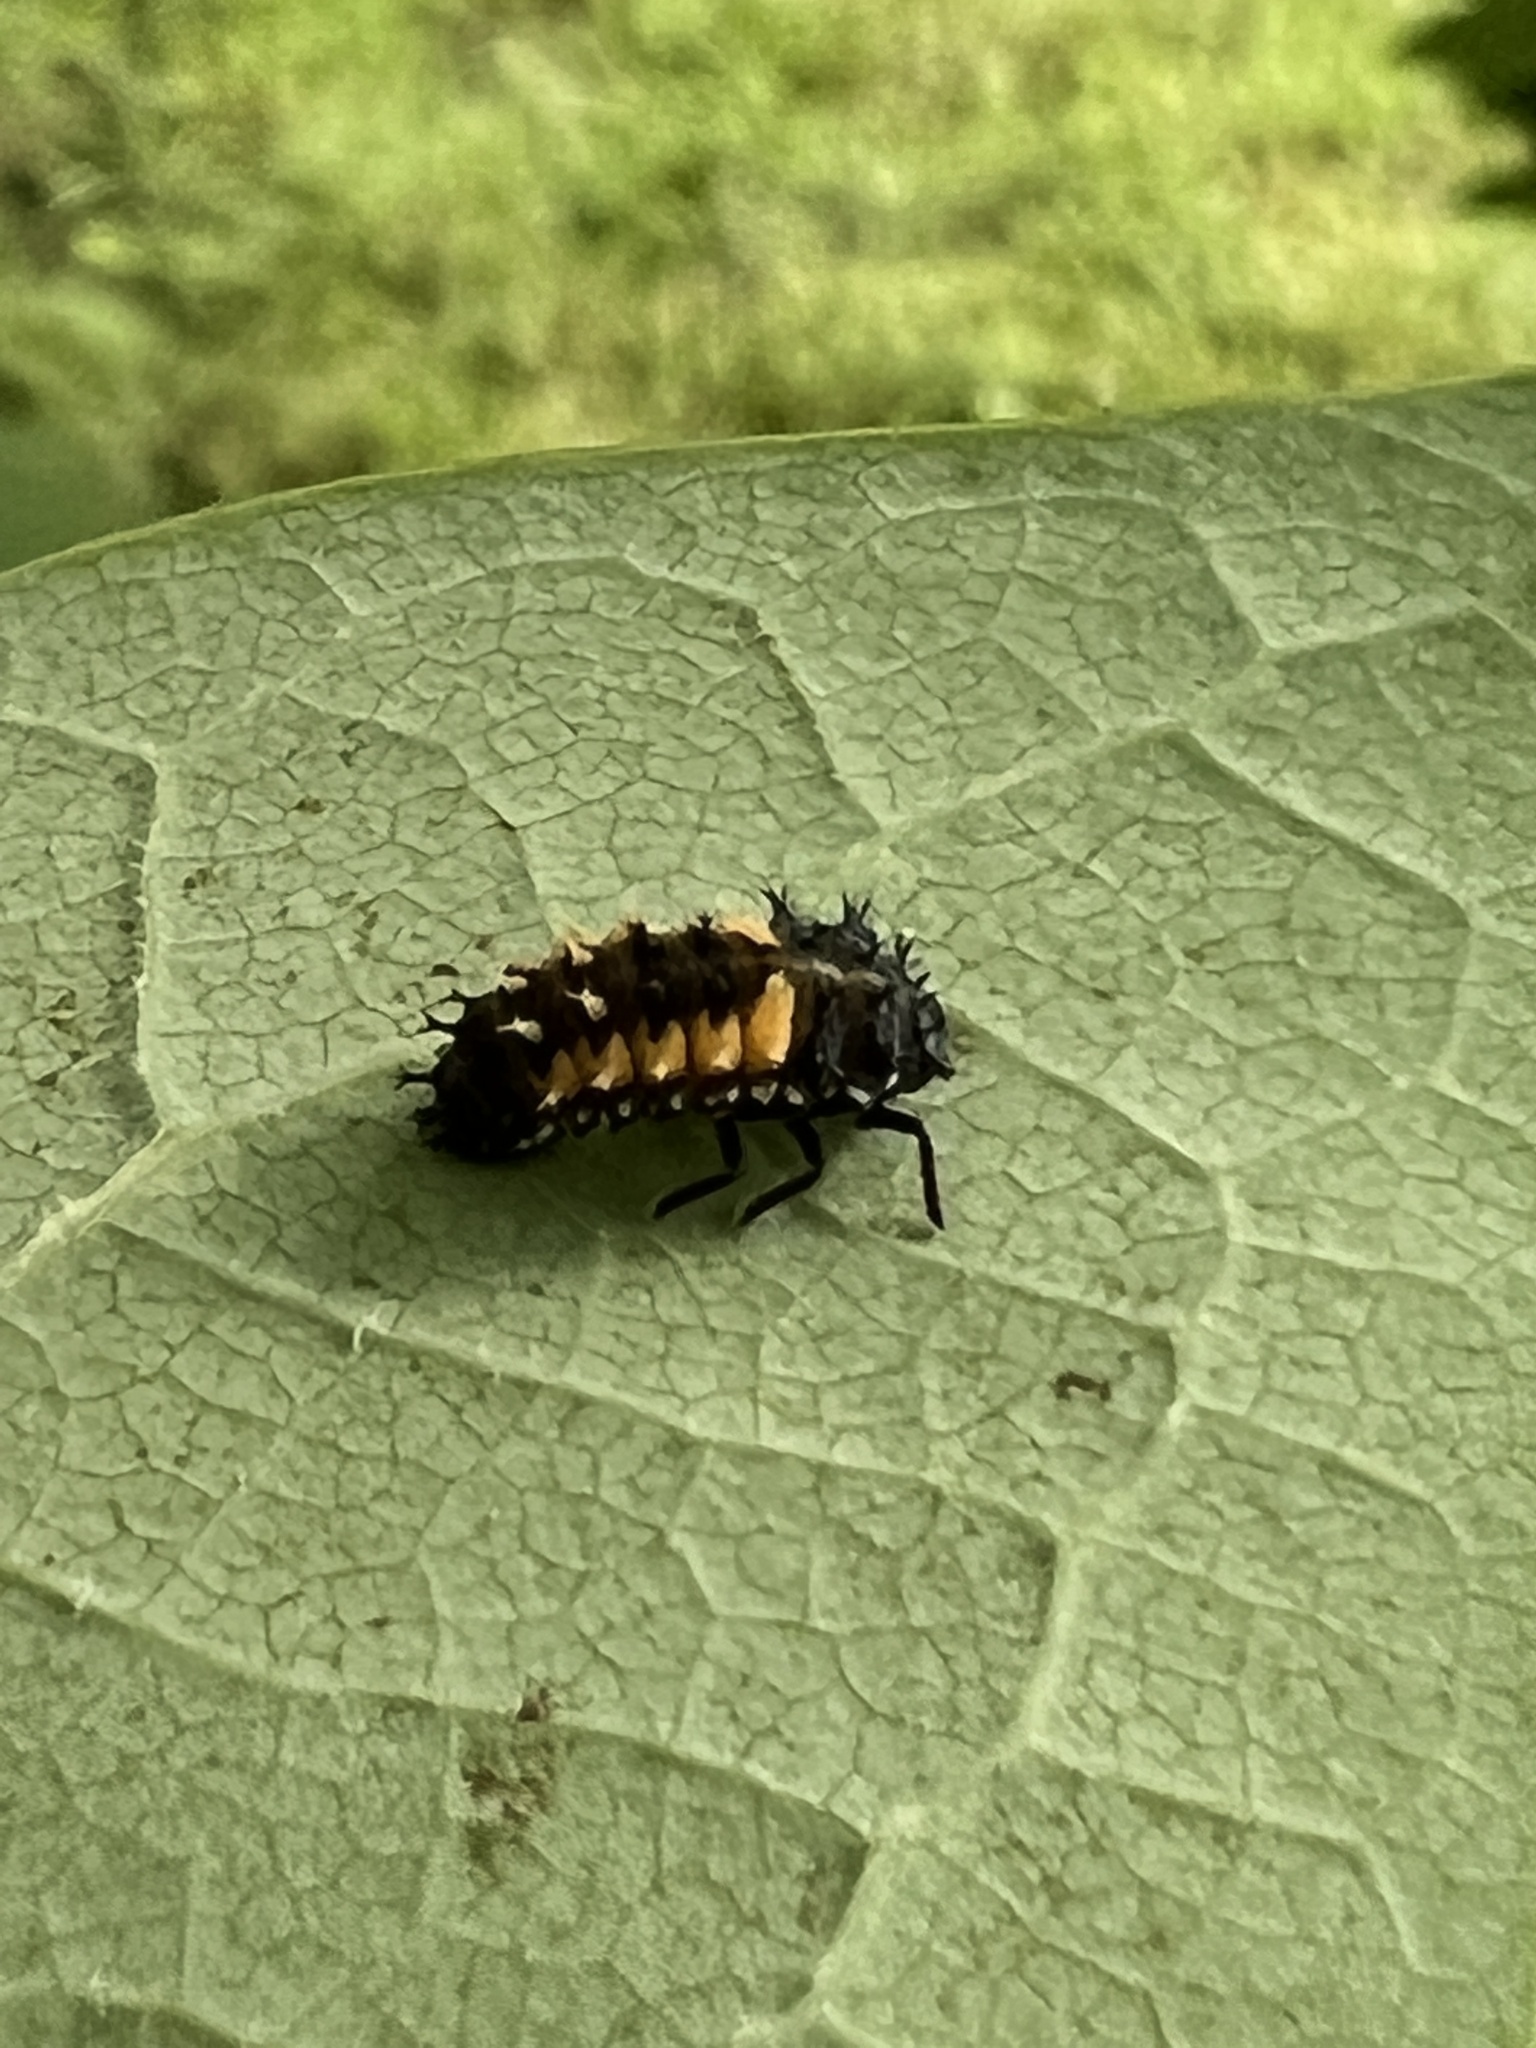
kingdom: Animalia
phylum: Arthropoda
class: Insecta
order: Coleoptera
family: Coccinellidae
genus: Harmonia
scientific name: Harmonia axyridis
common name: Harlequin ladybird
